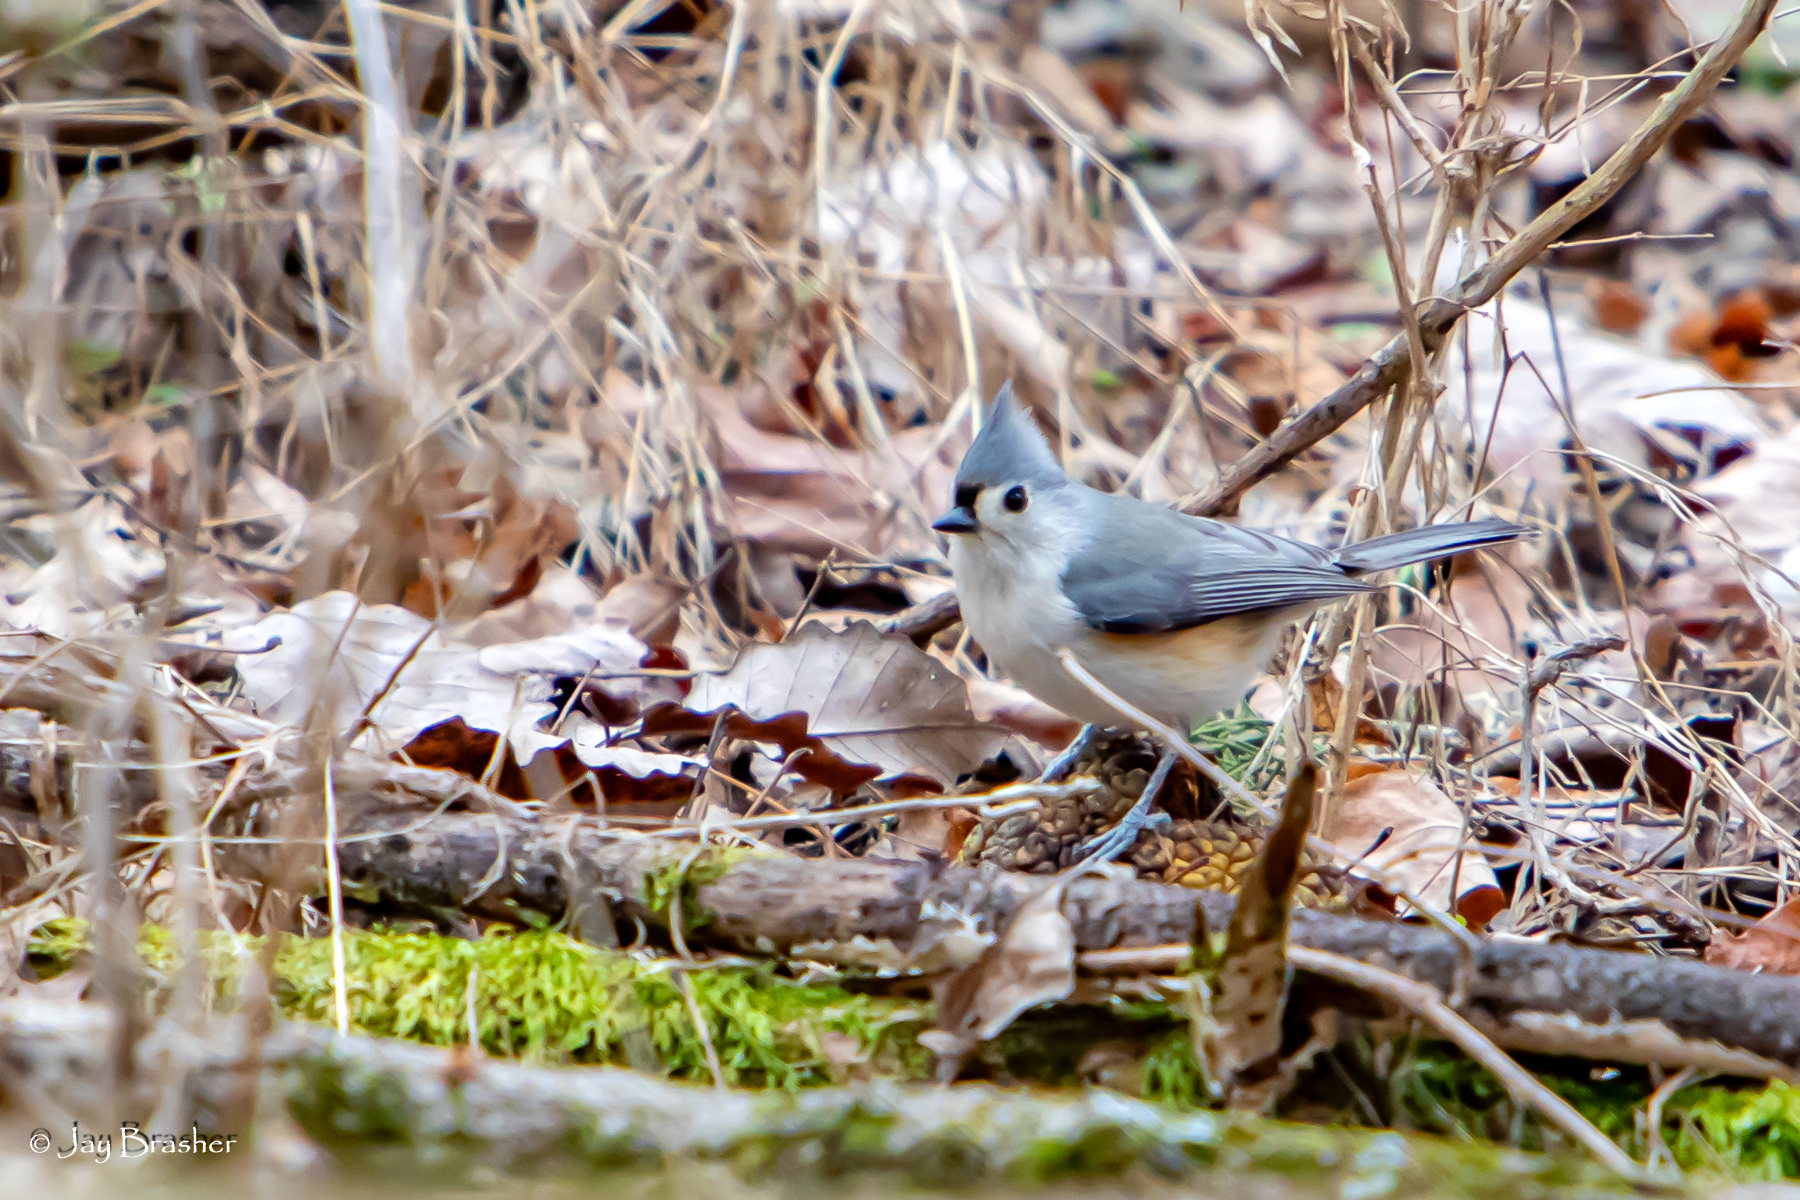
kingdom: Animalia
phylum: Chordata
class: Aves
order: Passeriformes
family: Paridae
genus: Baeolophus
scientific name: Baeolophus bicolor
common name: Tufted titmouse
